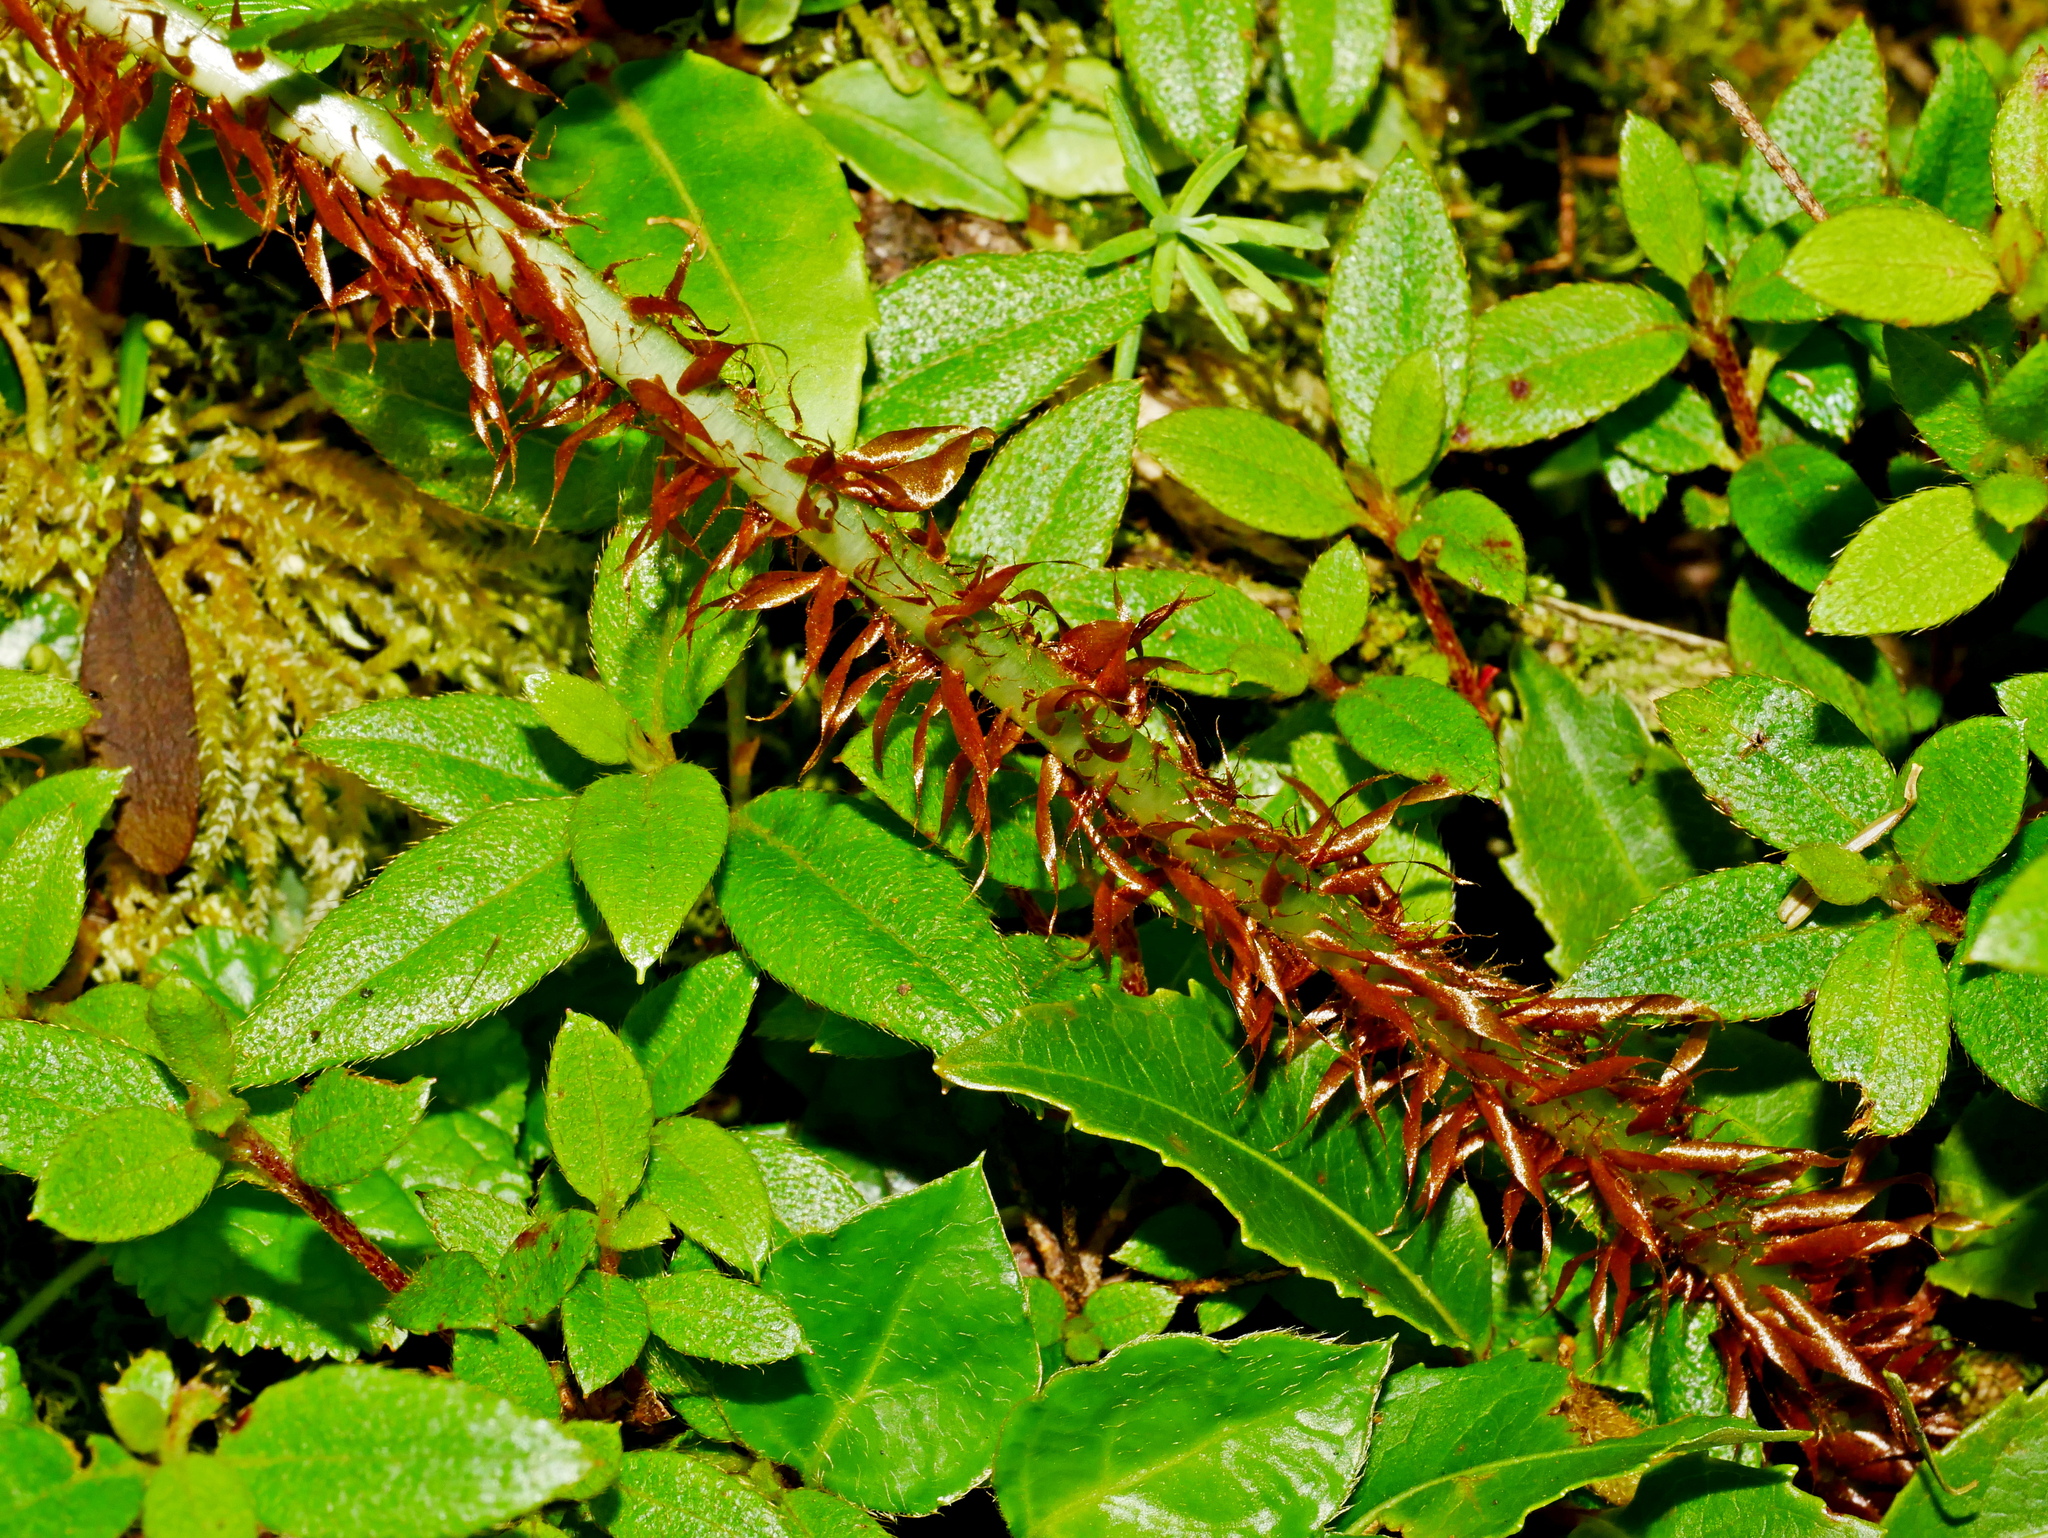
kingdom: Plantae
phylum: Tracheophyta
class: Polypodiopsida
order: Polypodiales
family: Dryopteridaceae
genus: Dryopteris
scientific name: Dryopteris reflexosquamata
